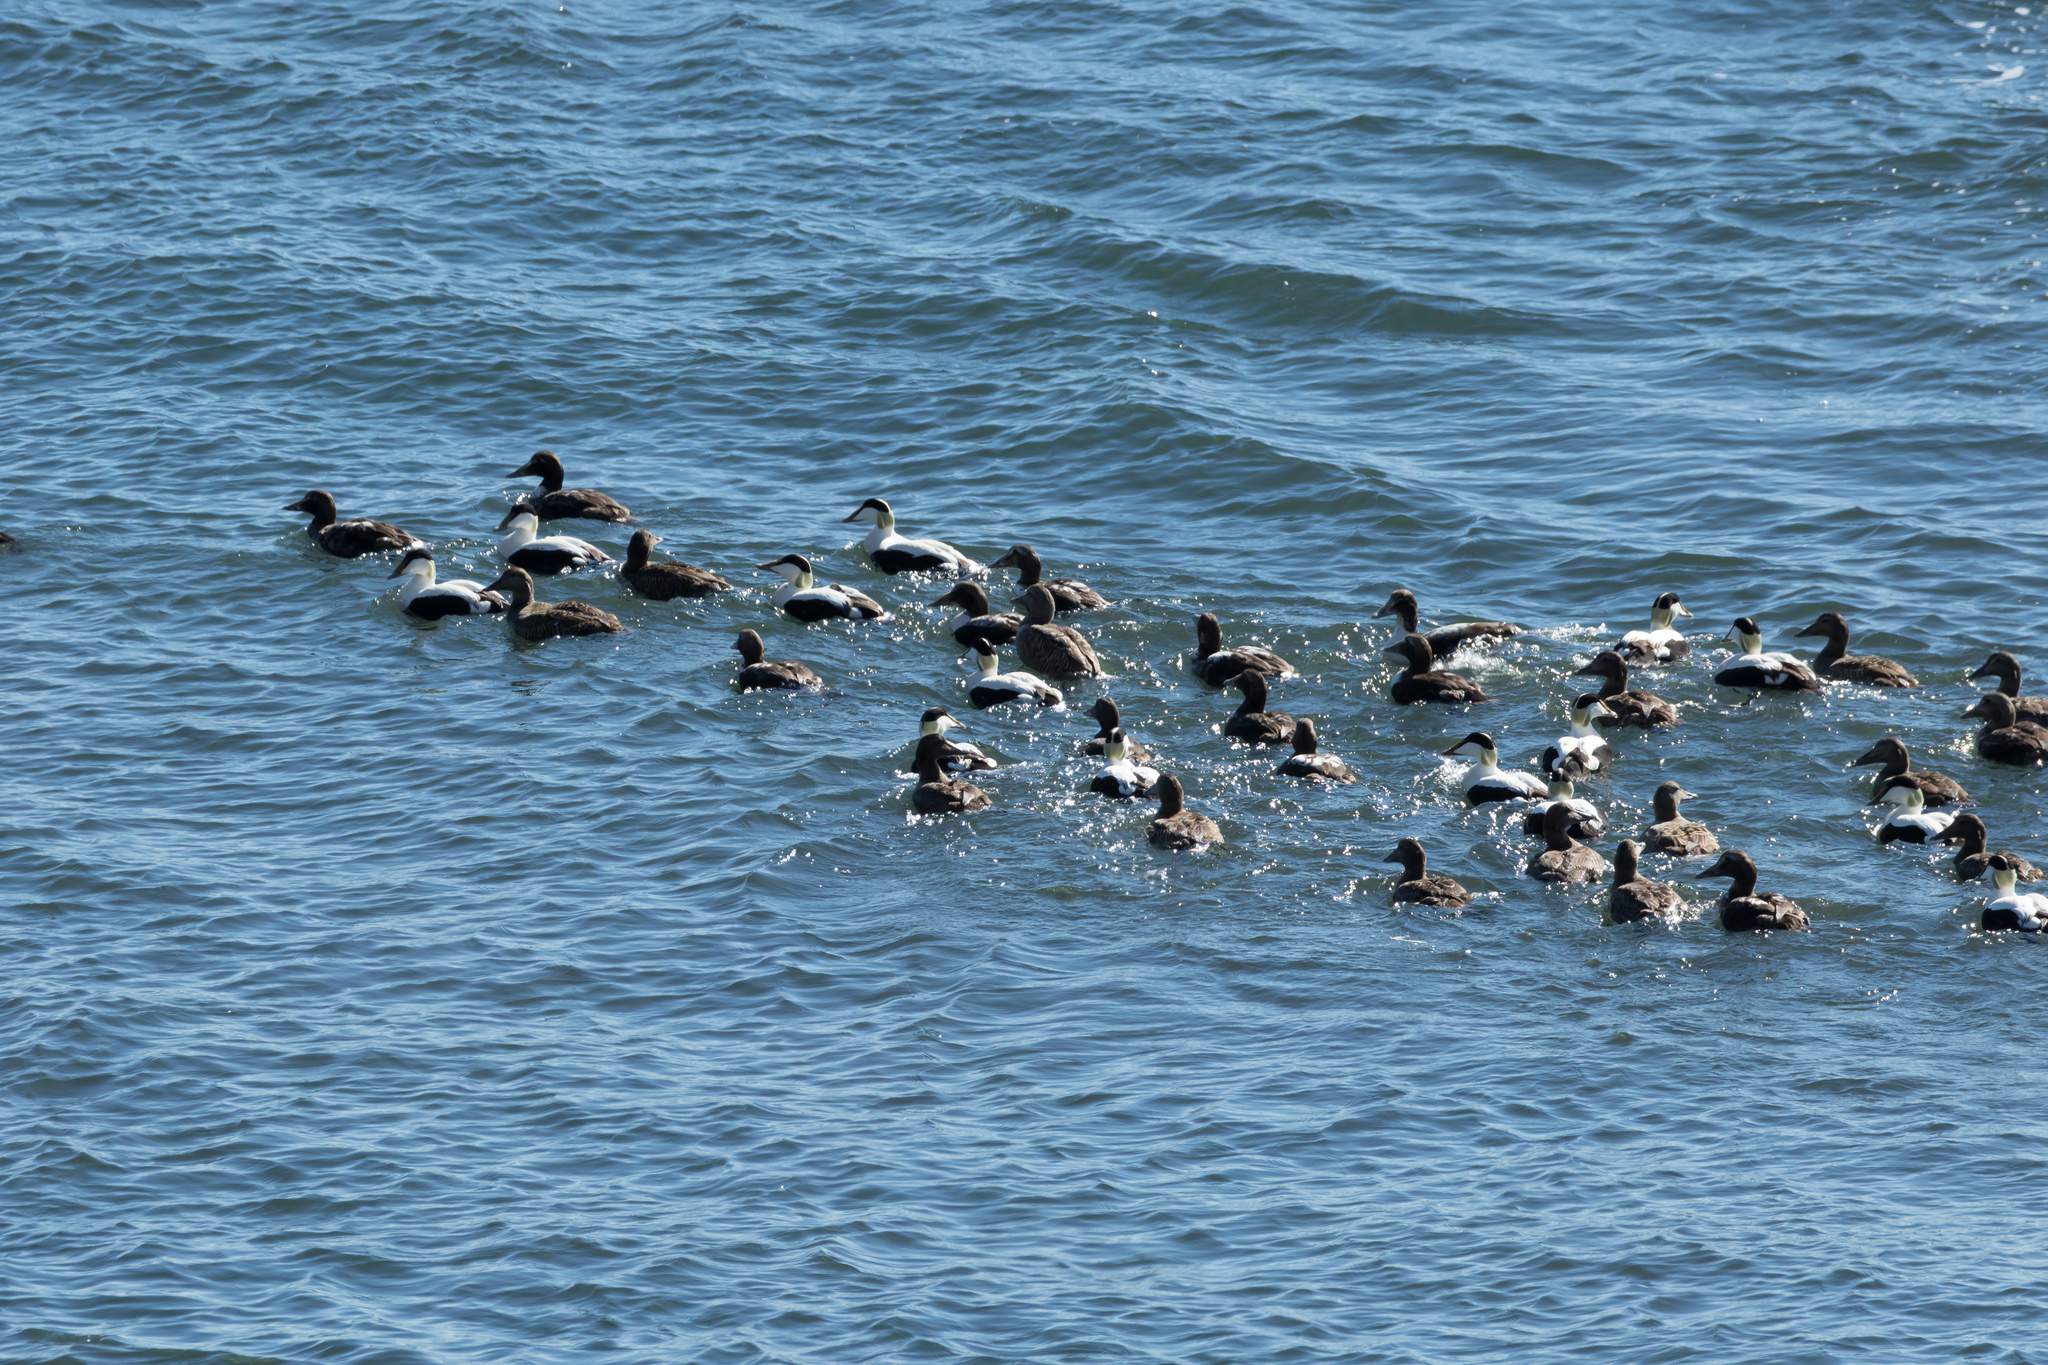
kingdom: Animalia
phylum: Chordata
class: Aves
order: Anseriformes
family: Anatidae
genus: Somateria
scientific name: Somateria mollissima
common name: Common eider
